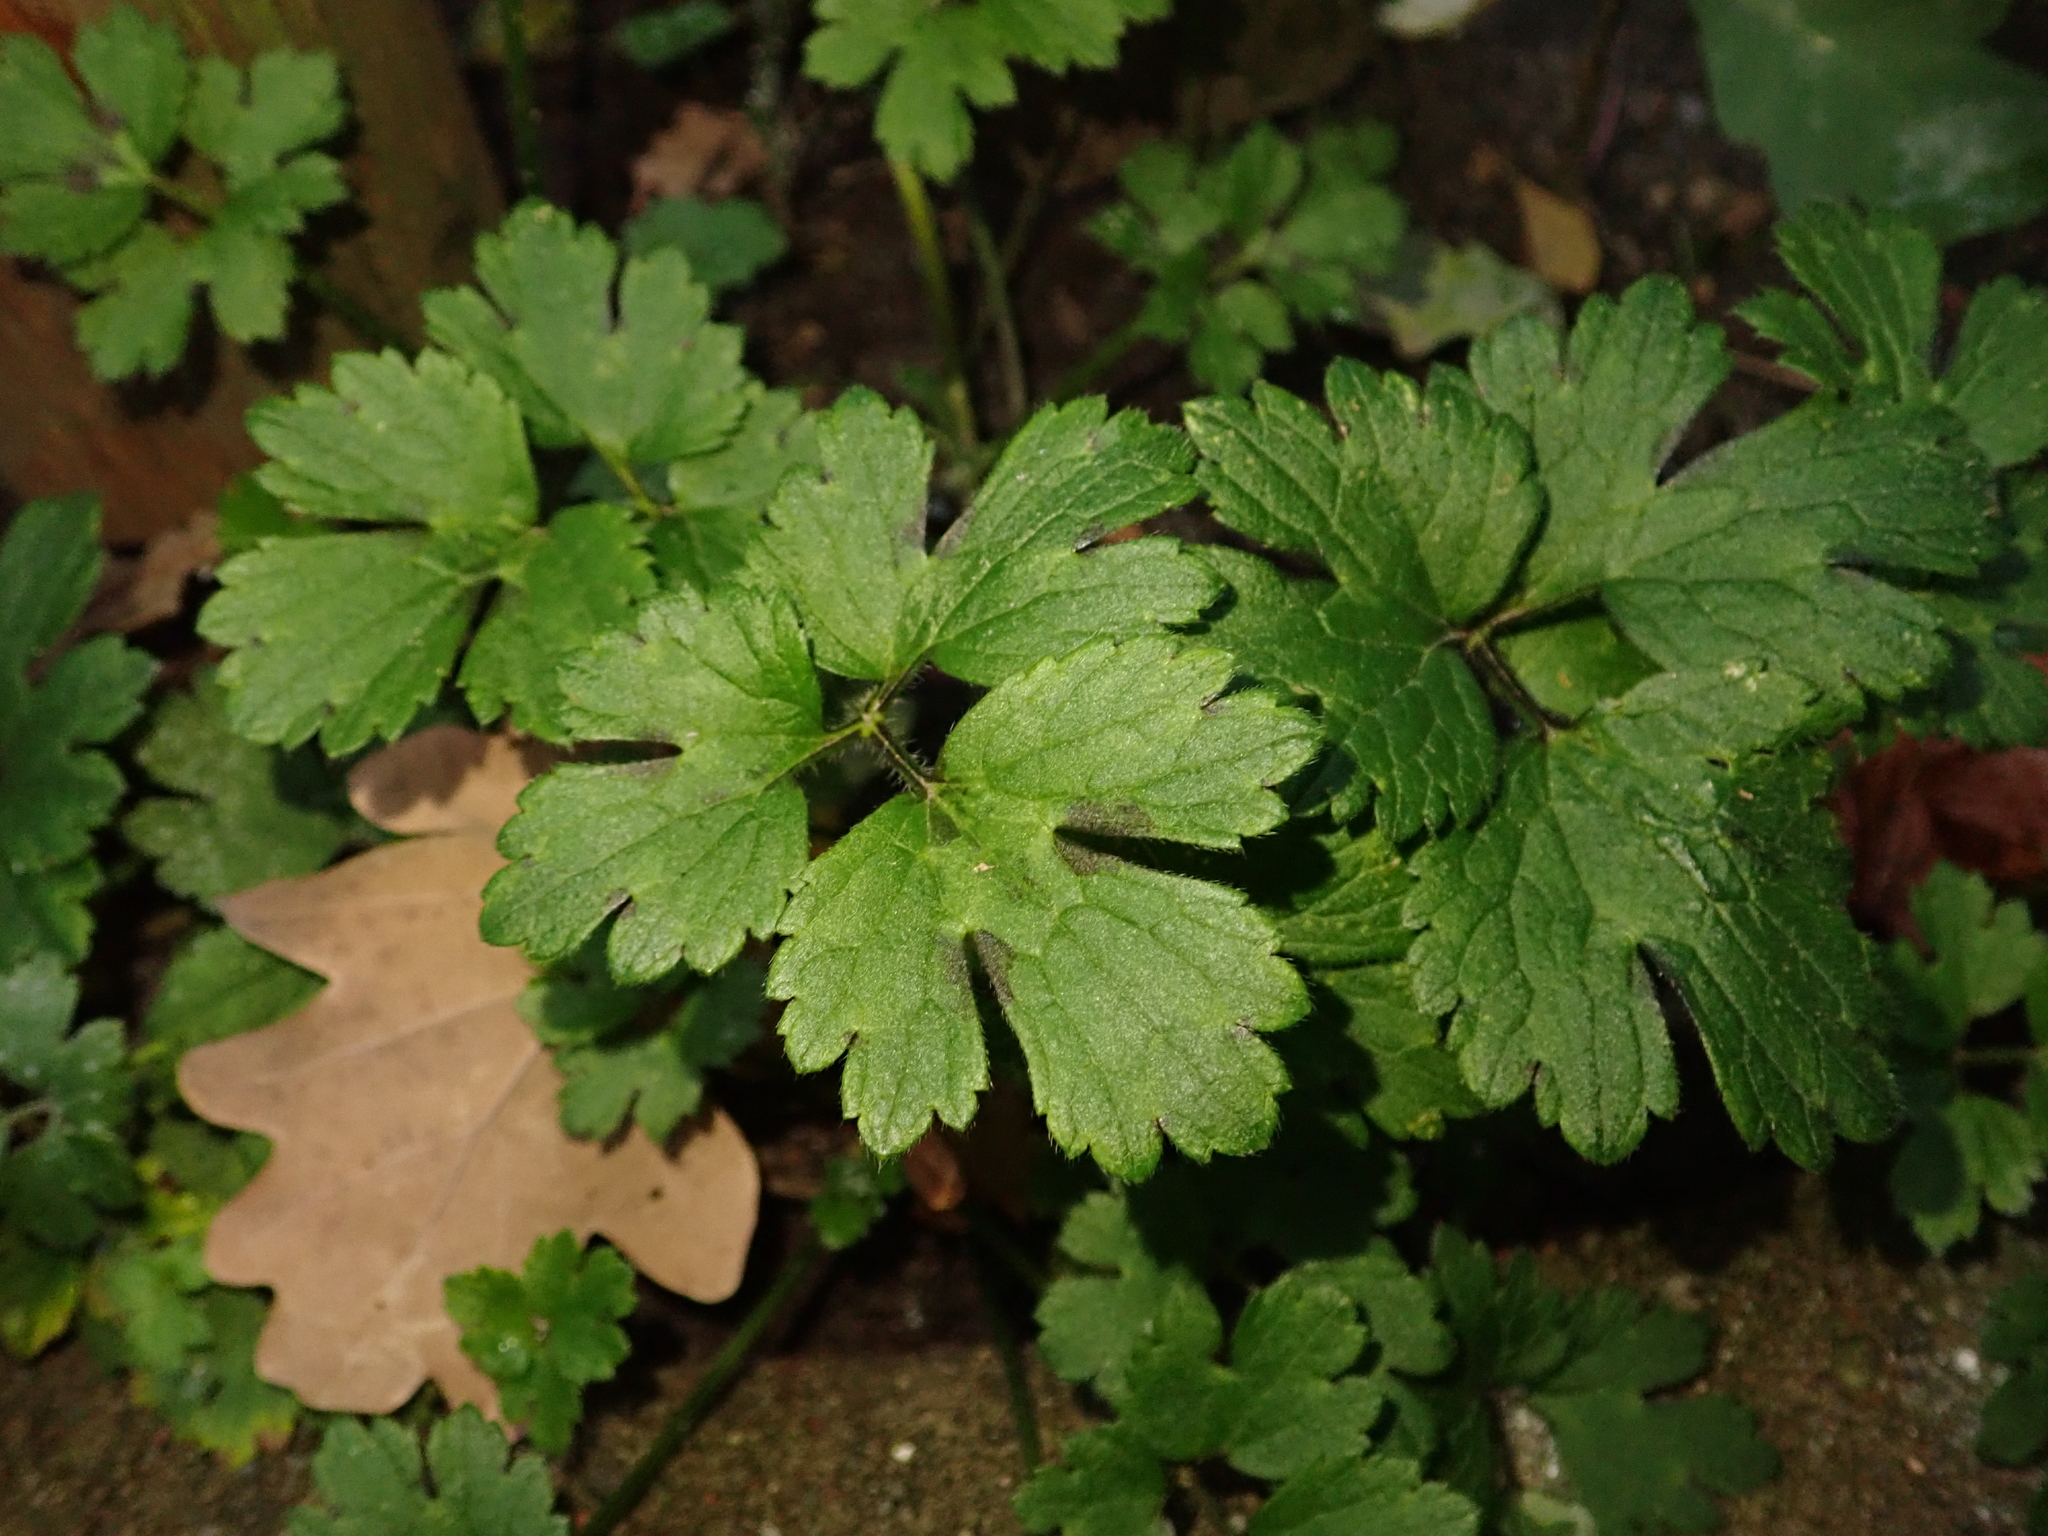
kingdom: Plantae
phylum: Tracheophyta
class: Magnoliopsida
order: Ranunculales
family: Ranunculaceae
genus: Ranunculus
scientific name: Ranunculus repens
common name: Creeping buttercup
